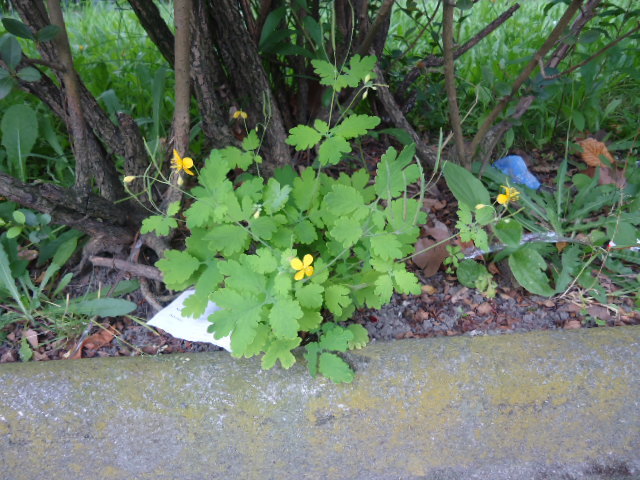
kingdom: Plantae
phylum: Tracheophyta
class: Magnoliopsida
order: Ranunculales
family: Papaveraceae
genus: Chelidonium
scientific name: Chelidonium majus
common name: Greater celandine
